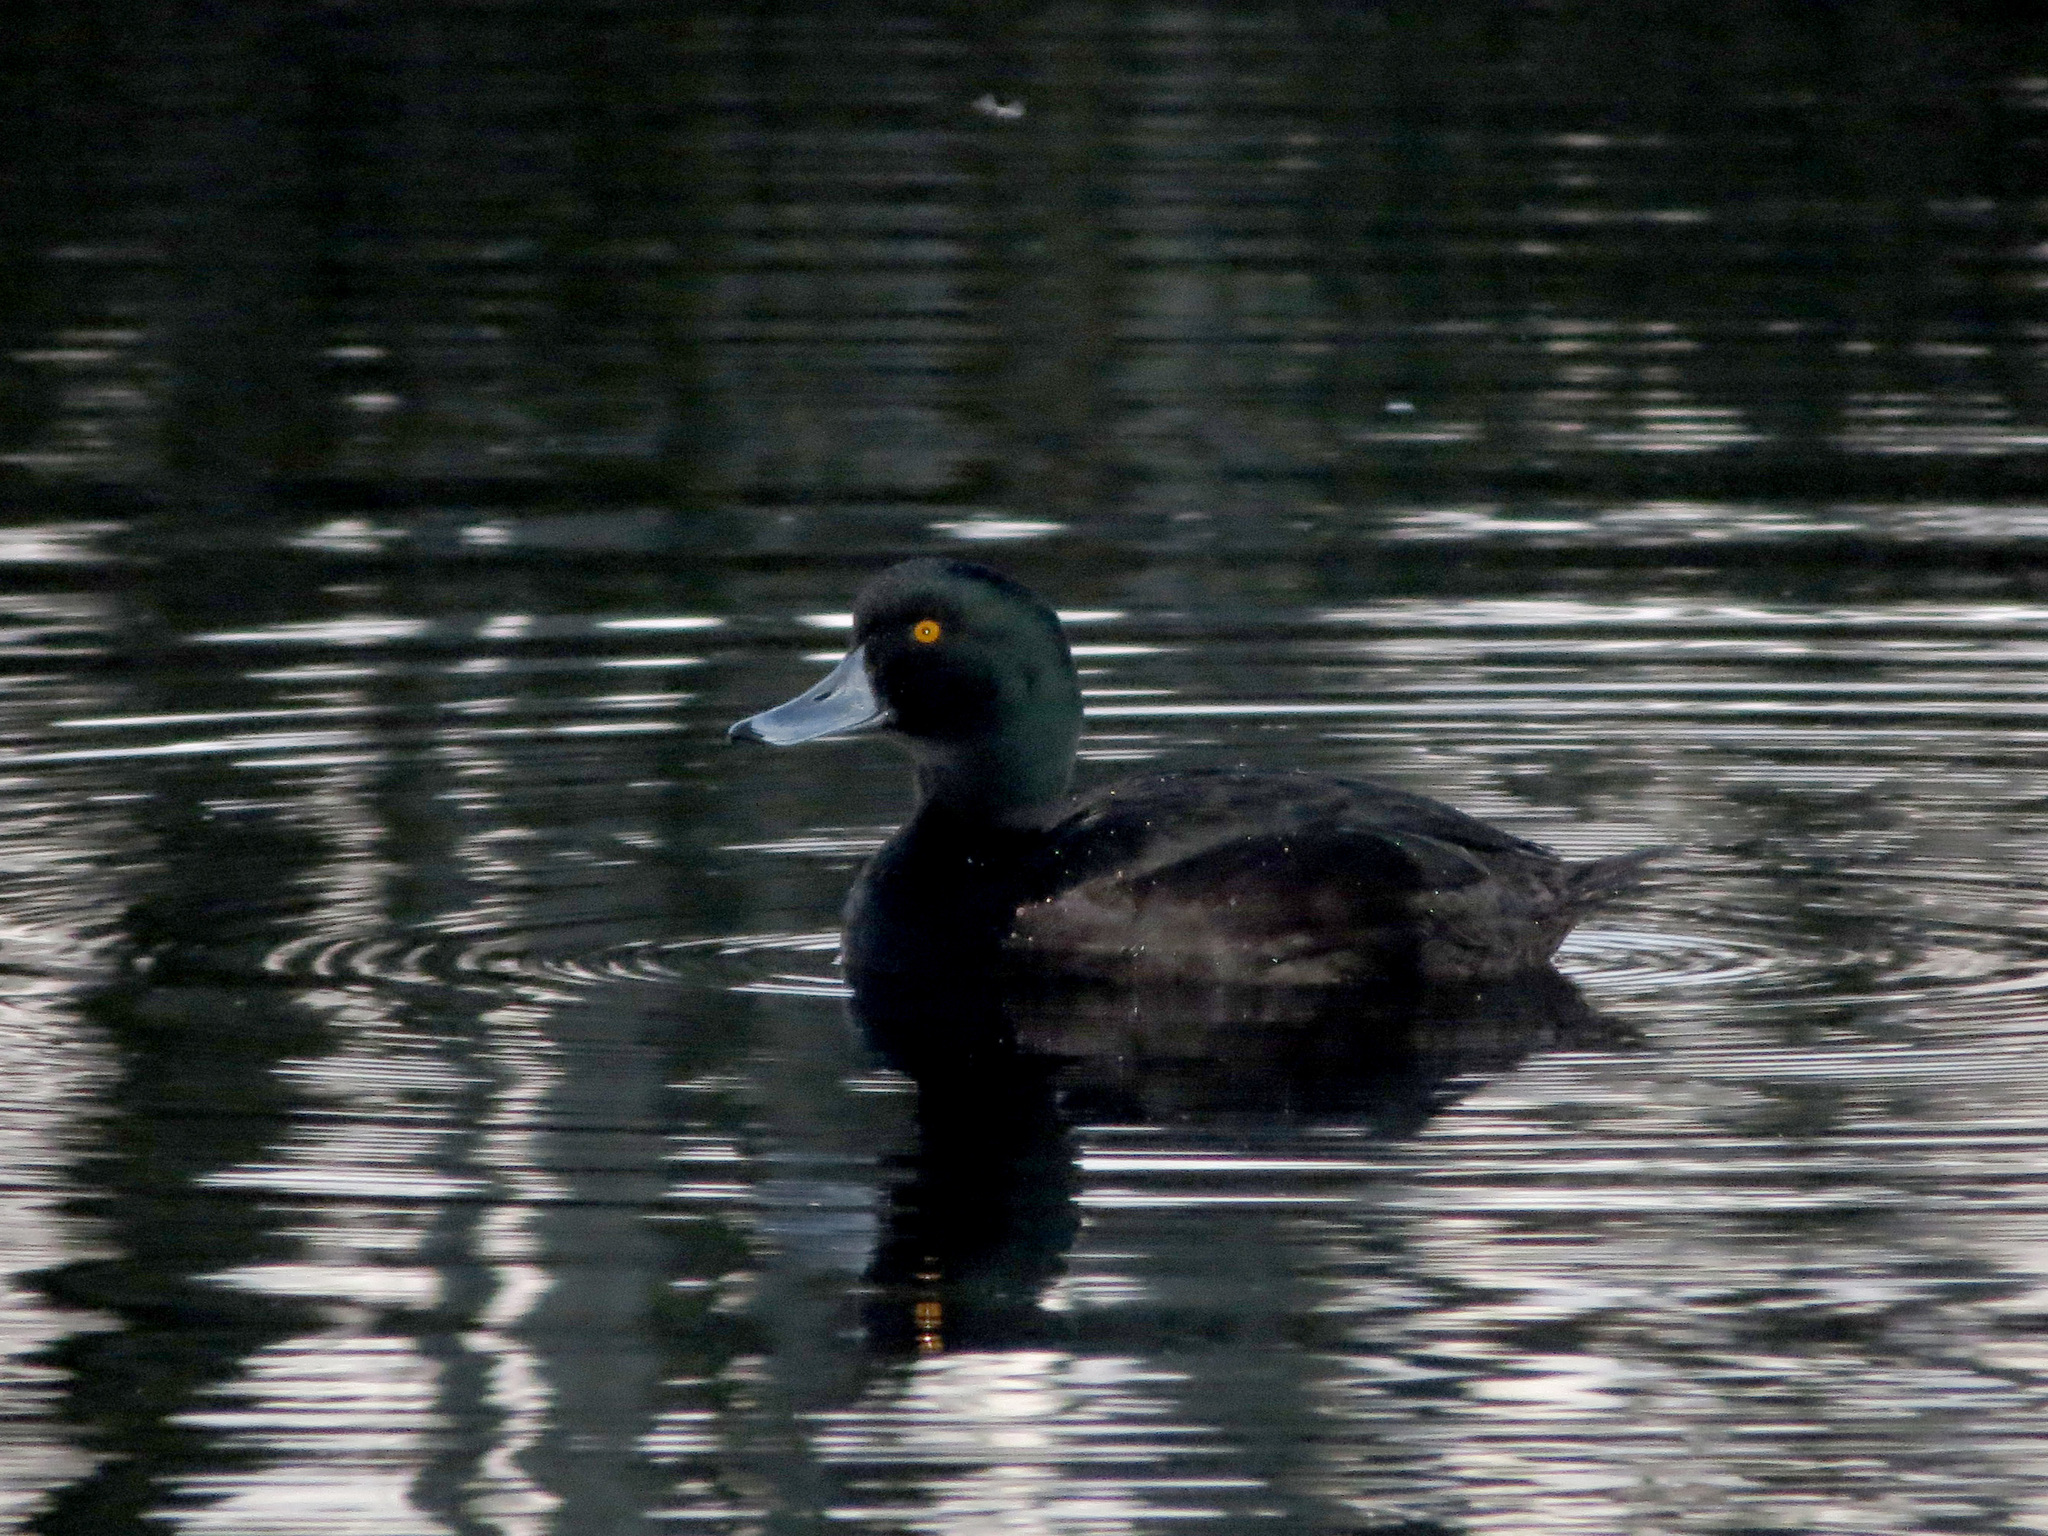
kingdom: Animalia
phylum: Chordata
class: Aves
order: Anseriformes
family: Anatidae
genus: Aythya
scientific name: Aythya novaeseelandiae
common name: New zealand scaup
